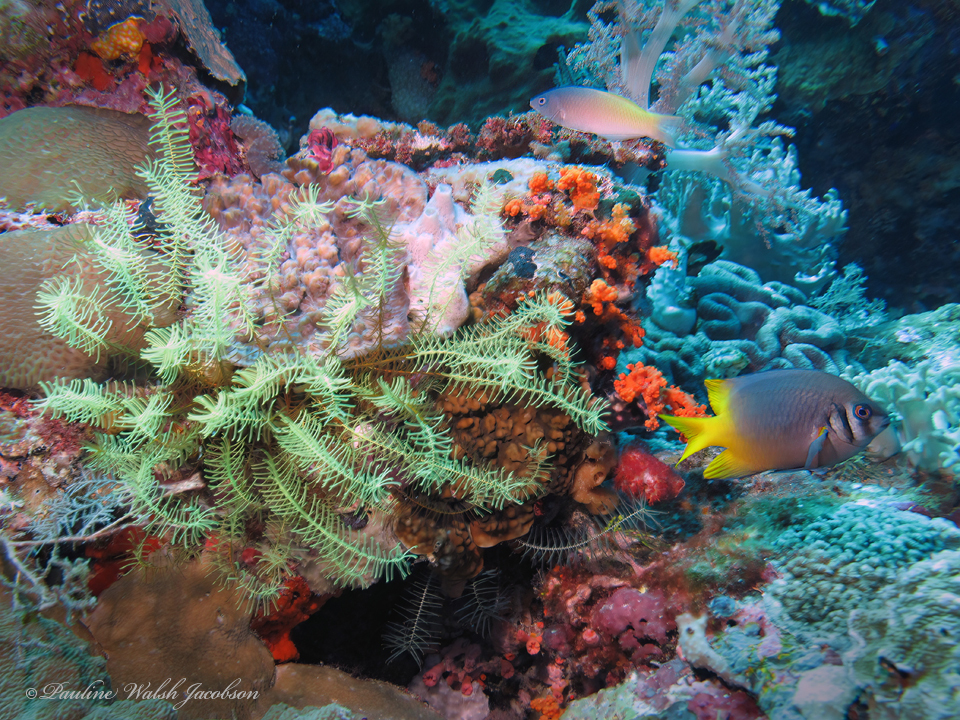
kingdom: Animalia
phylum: Chordata
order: Perciformes
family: Pomacentridae
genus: Neoglyphidodon
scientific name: Neoglyphidodon nigroris
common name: Behn's damsel
